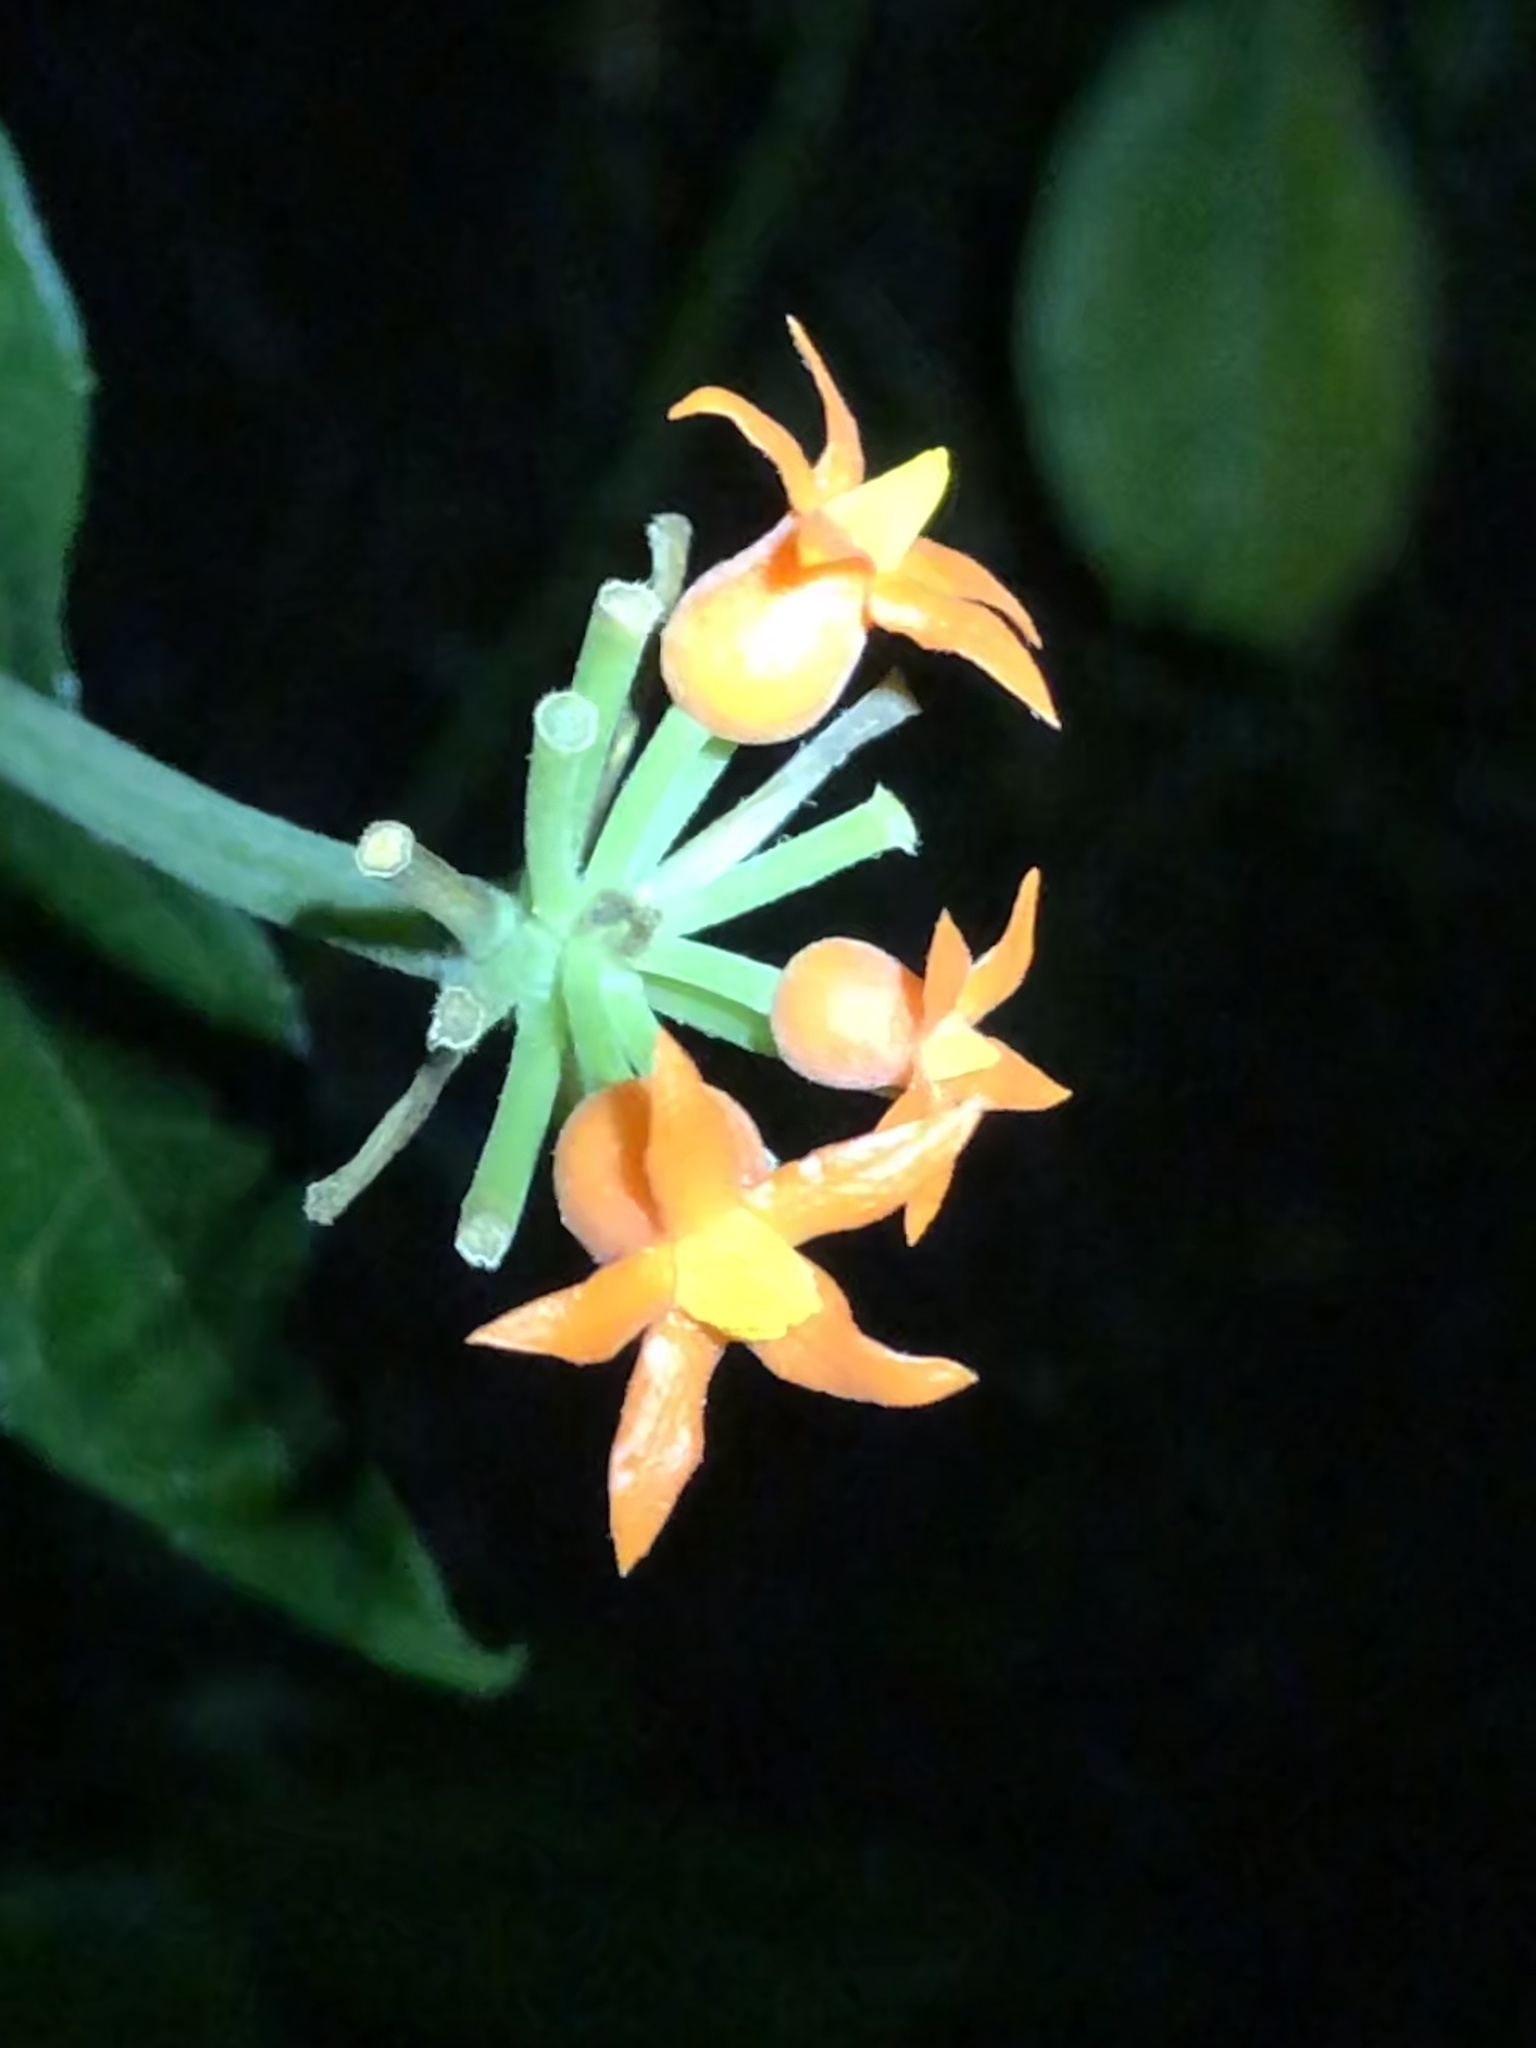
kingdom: Plantae
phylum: Tracheophyta
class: Magnoliopsida
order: Cucurbitales
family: Cucurbitaceae
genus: Gurania
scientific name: Gurania bignoniacea
